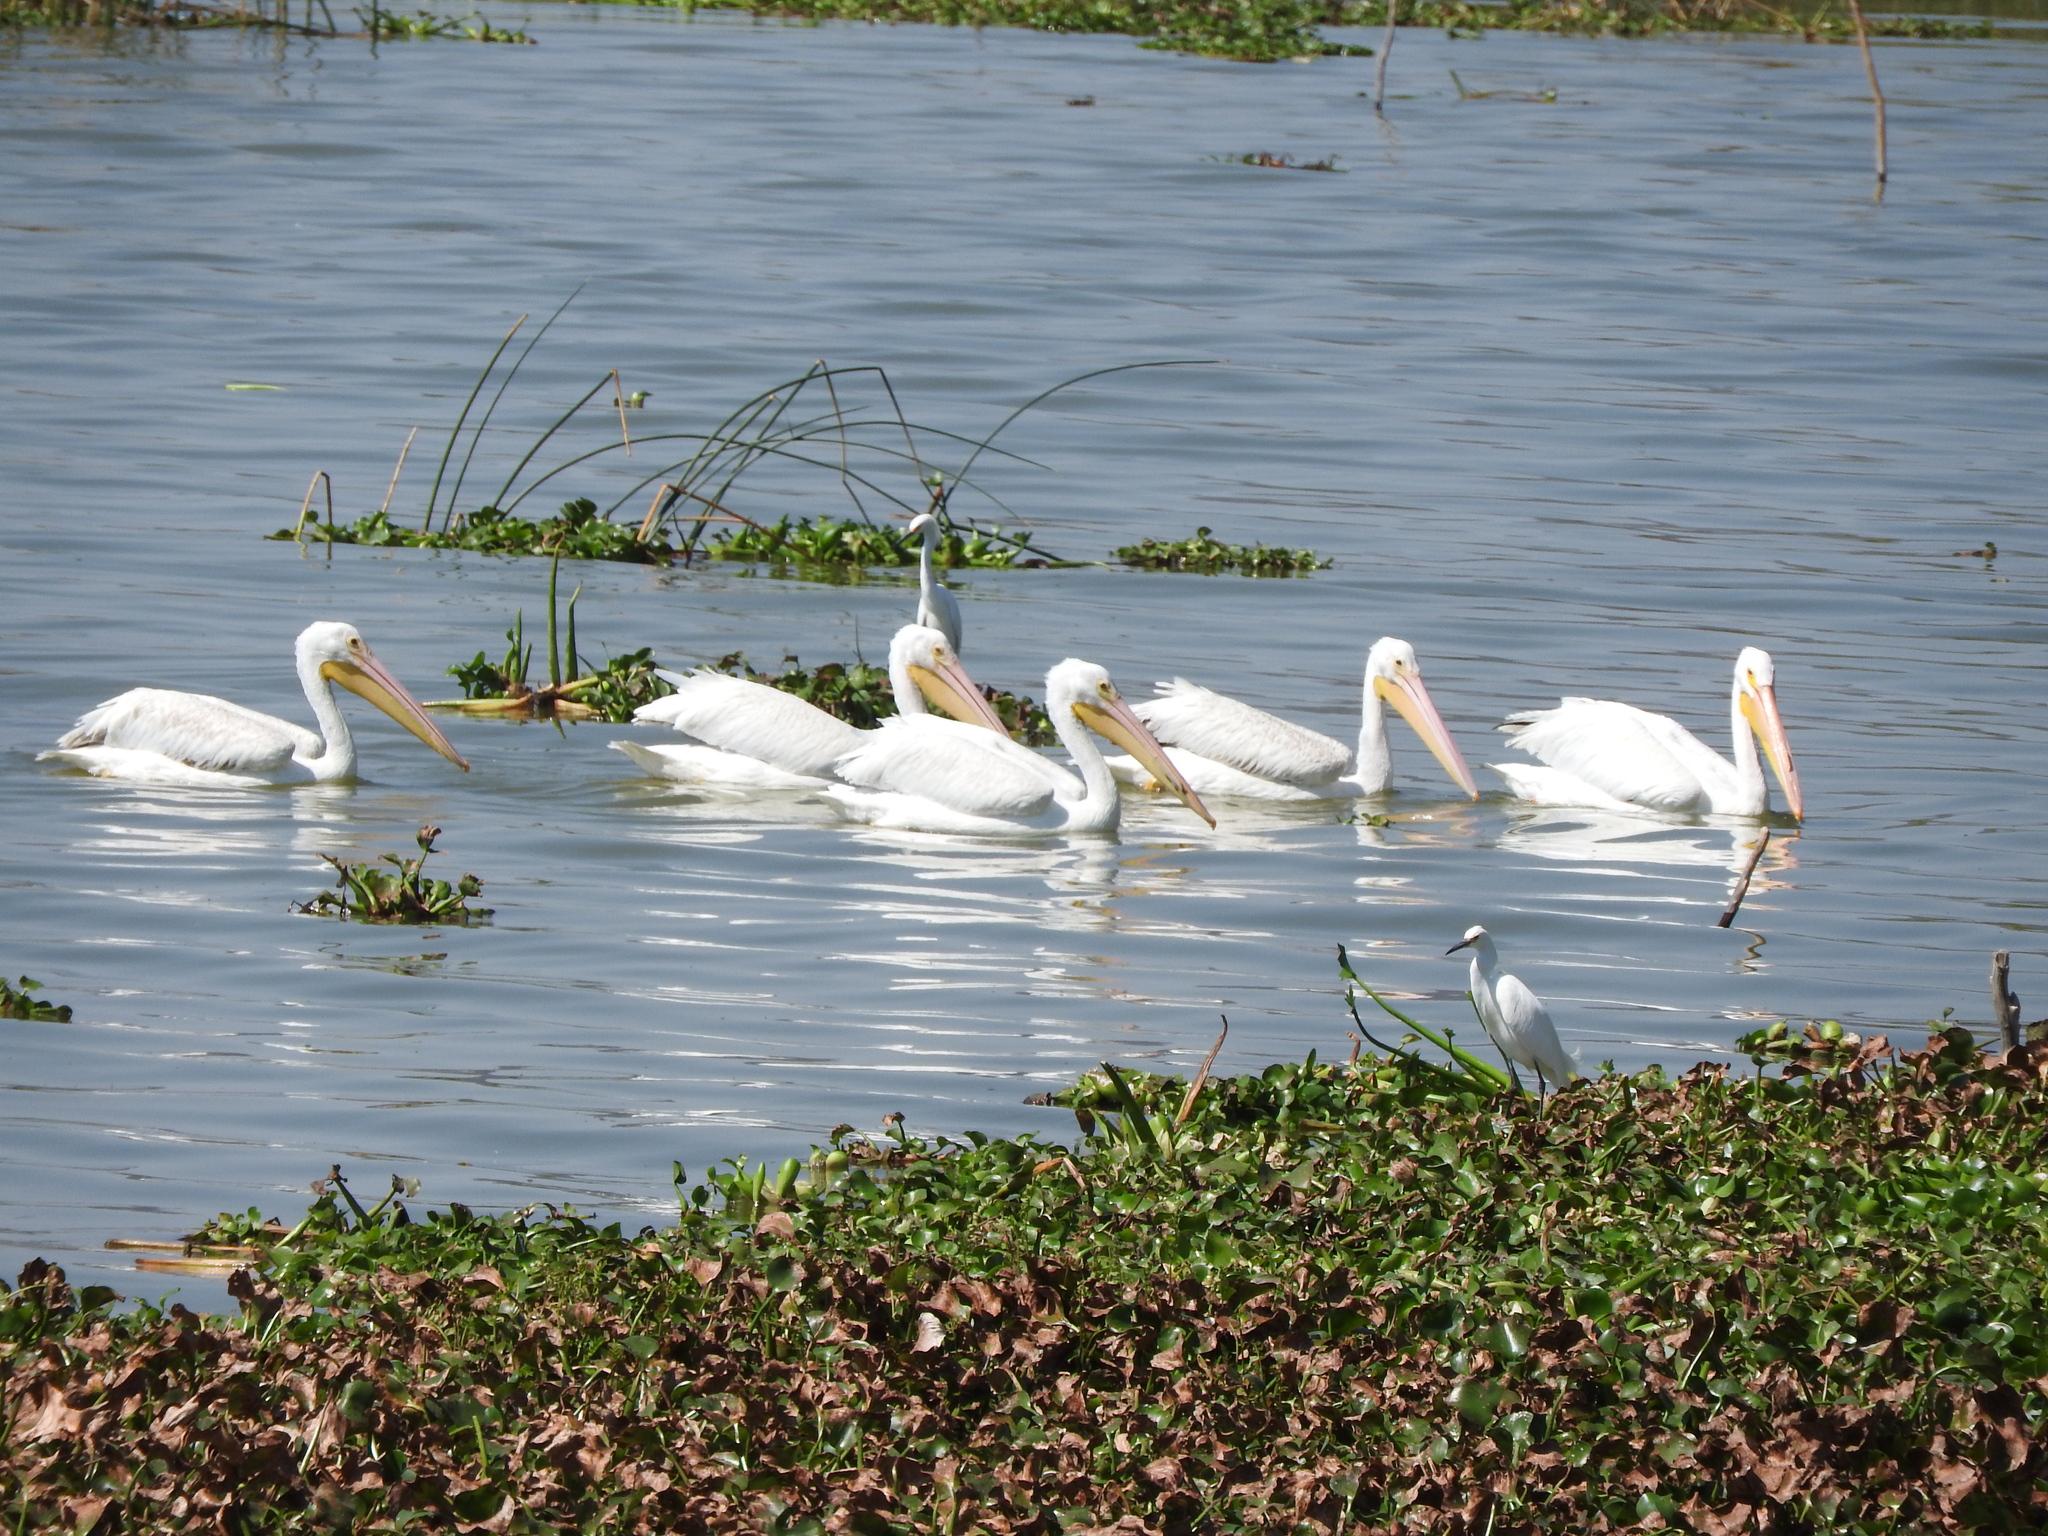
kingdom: Animalia
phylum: Chordata
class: Aves
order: Pelecaniformes
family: Pelecanidae
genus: Pelecanus
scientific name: Pelecanus erythrorhynchos
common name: American white pelican
